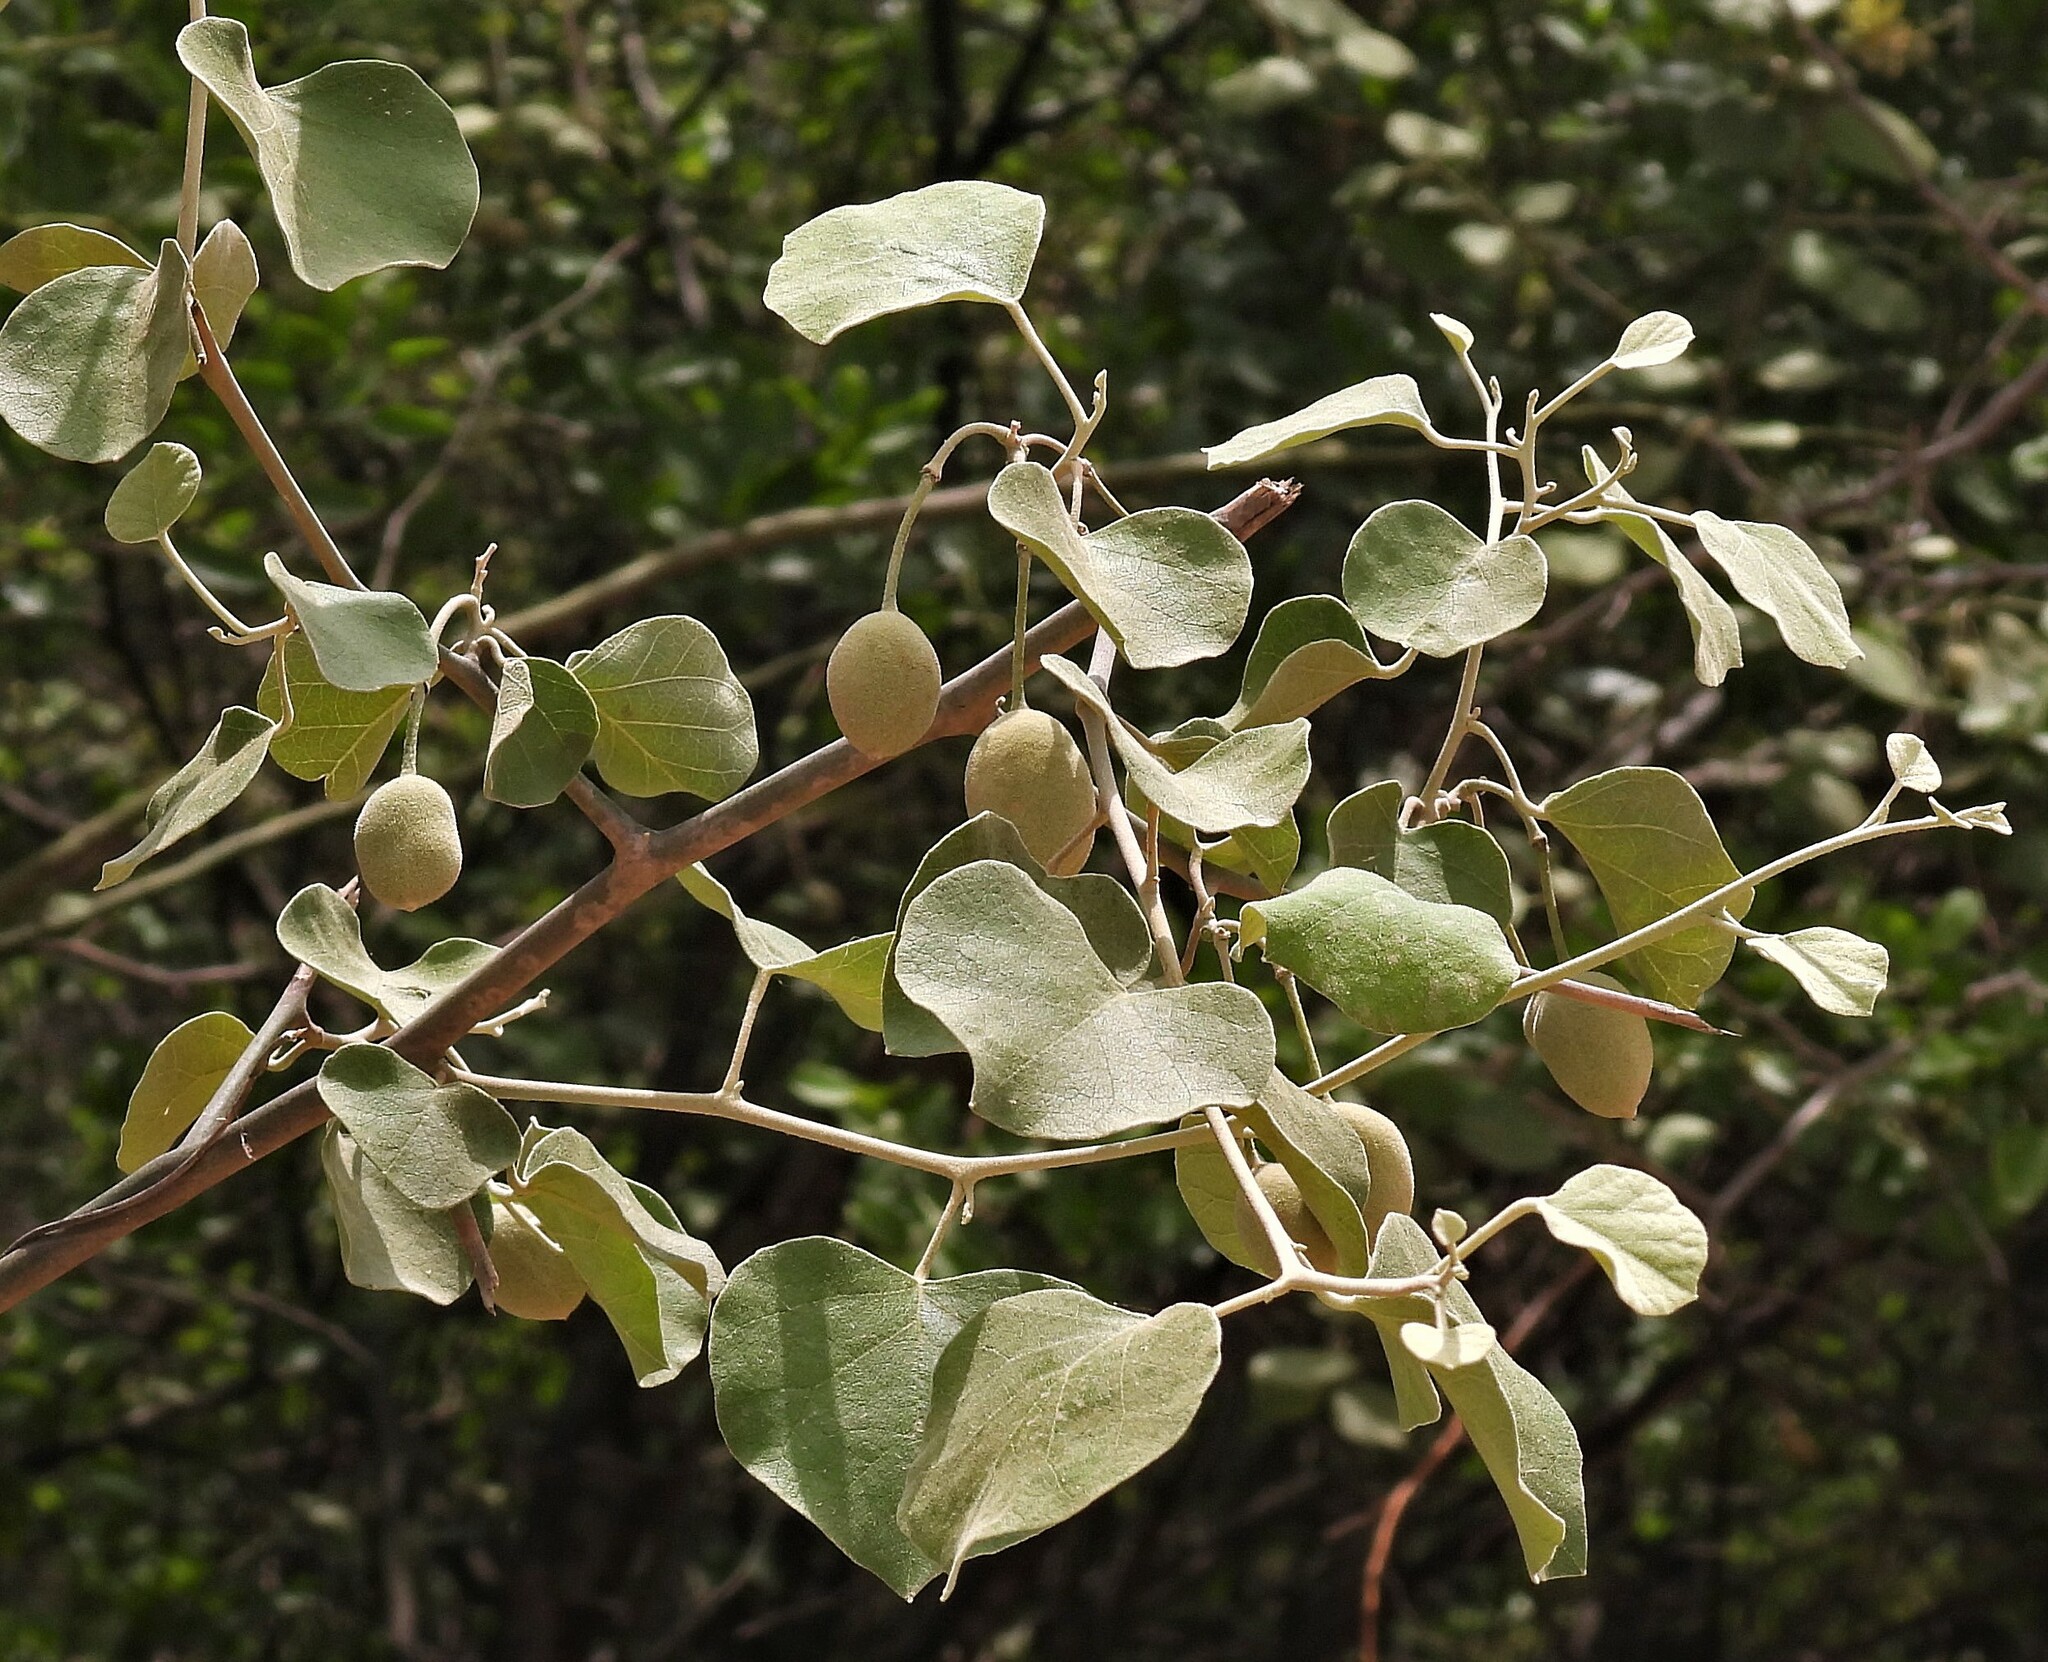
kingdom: Plantae
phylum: Tracheophyta
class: Magnoliopsida
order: Brassicales
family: Capparaceae
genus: Capparicordis
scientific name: Capparicordis tweedieana
